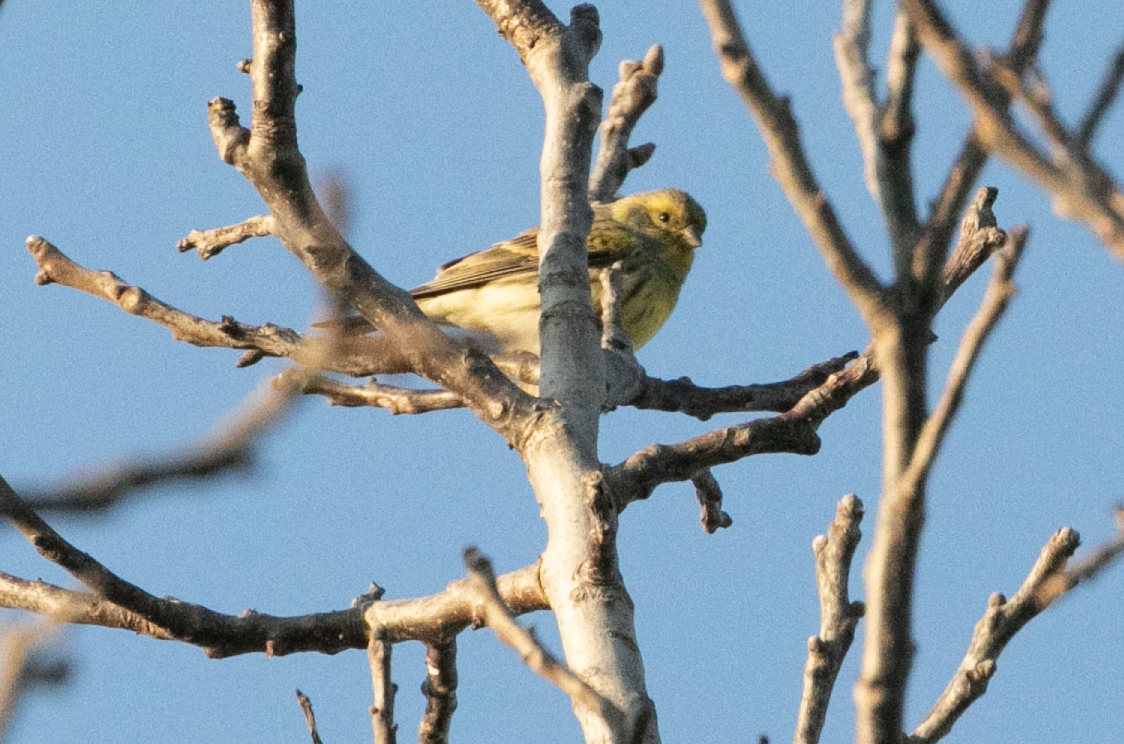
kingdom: Animalia
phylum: Chordata
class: Aves
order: Passeriformes
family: Fringillidae
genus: Serinus
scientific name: Serinus serinus
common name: European serin
